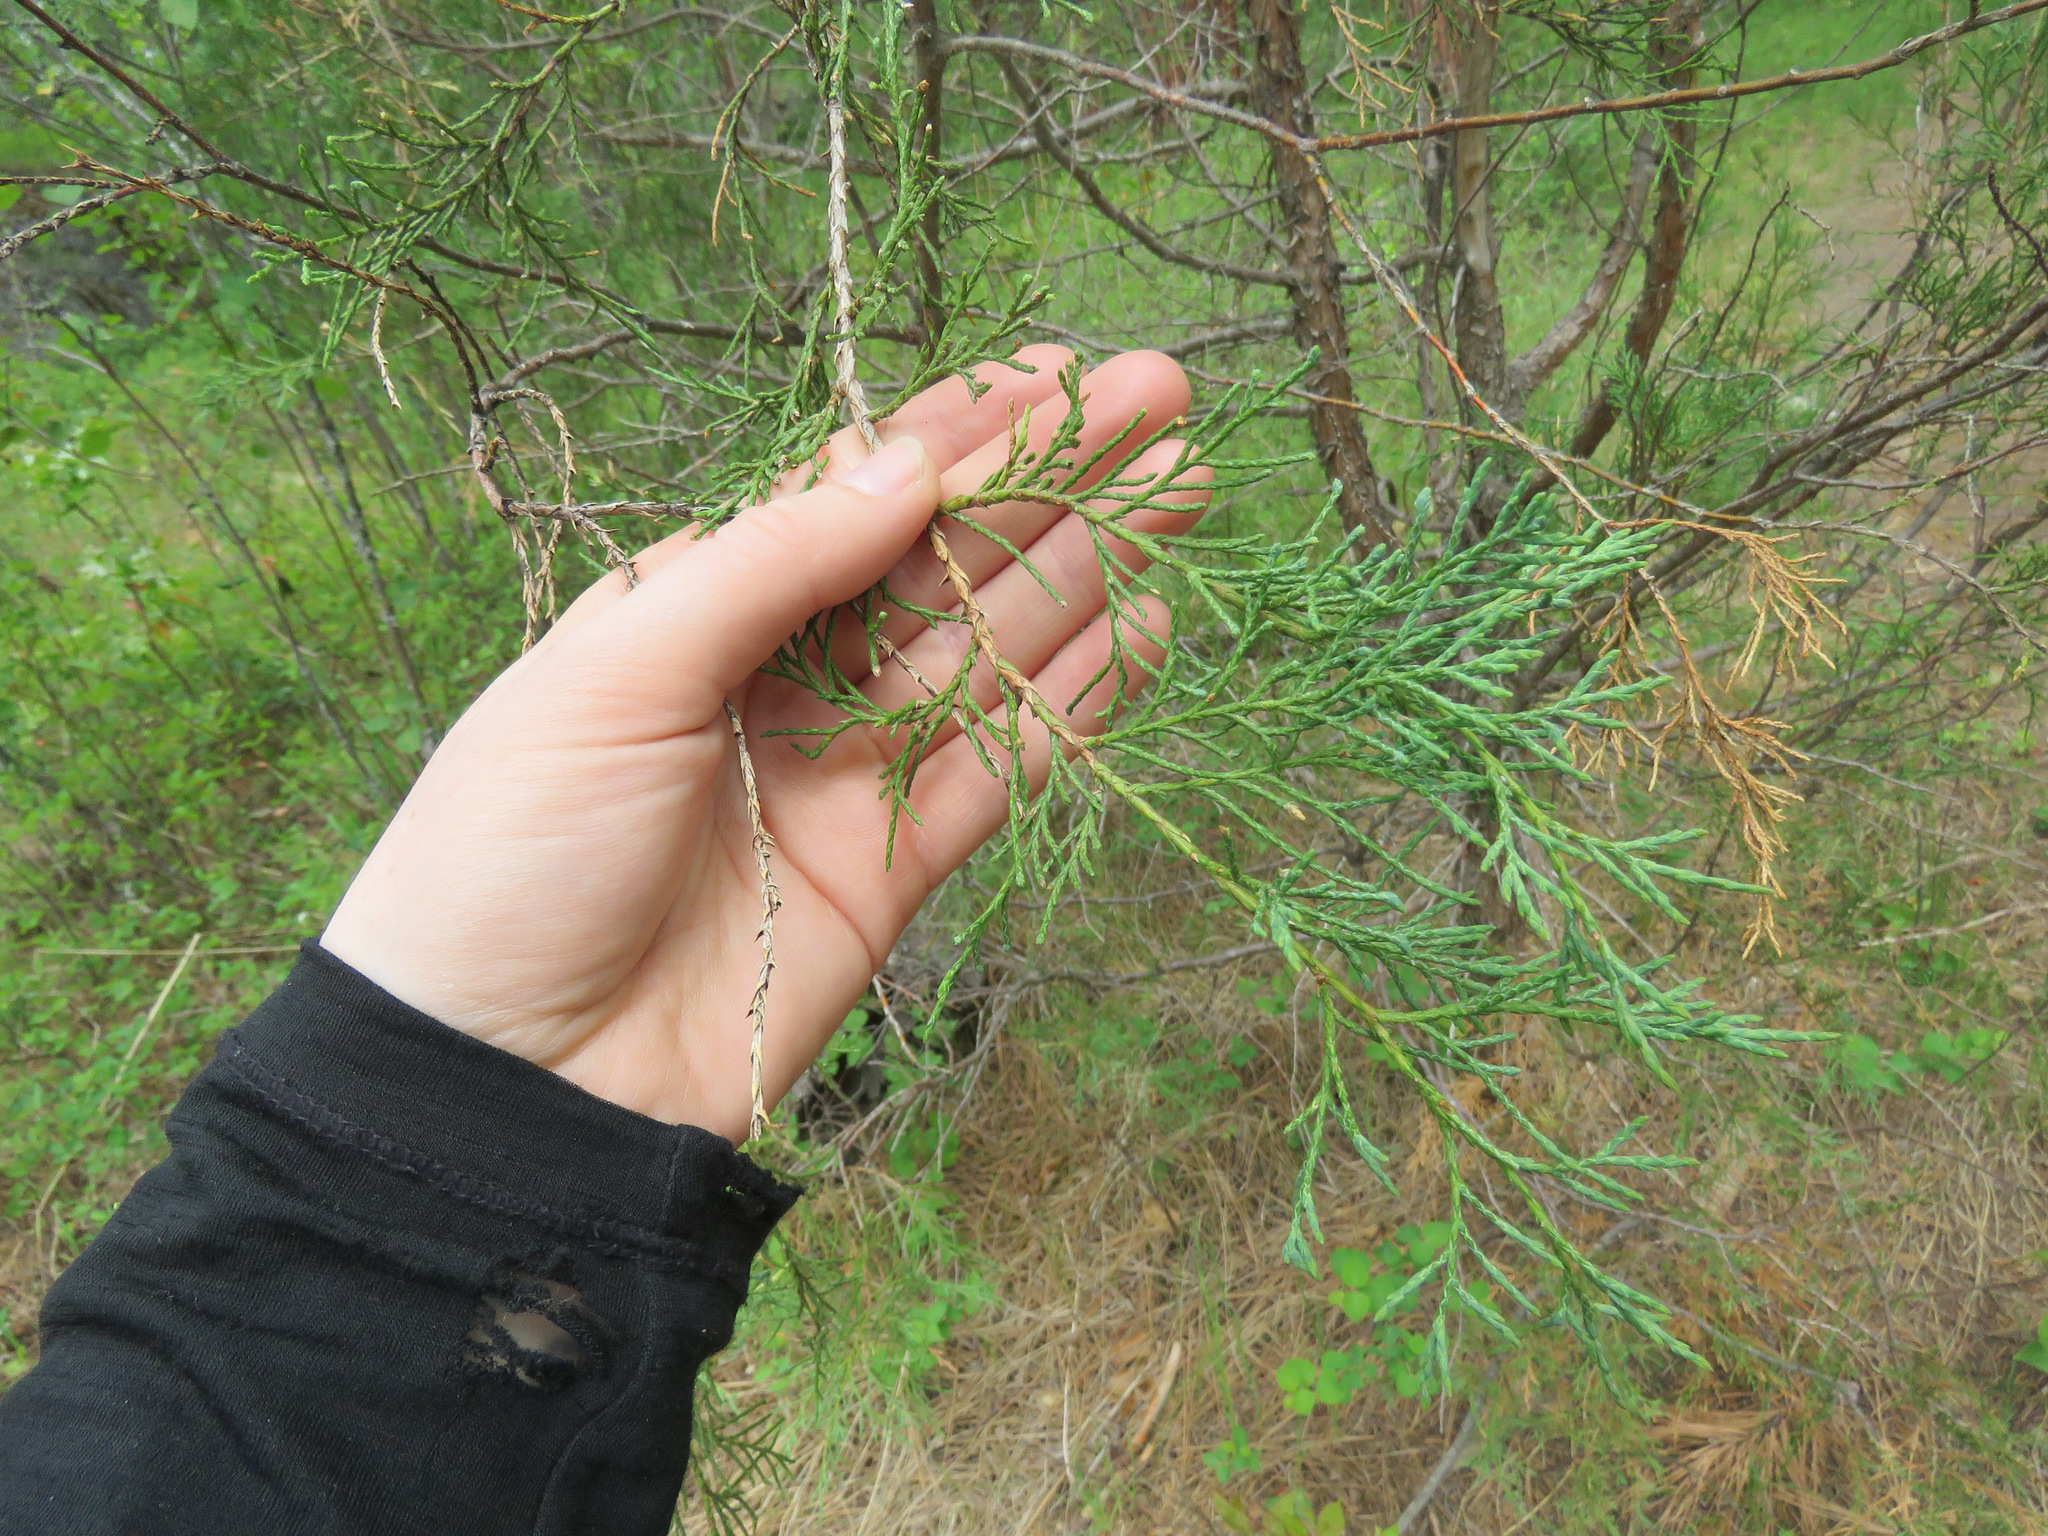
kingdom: Plantae
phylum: Tracheophyta
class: Pinopsida
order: Pinales
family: Cupressaceae
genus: Juniperus
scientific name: Juniperus scopulorum
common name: Rocky mountain juniper
